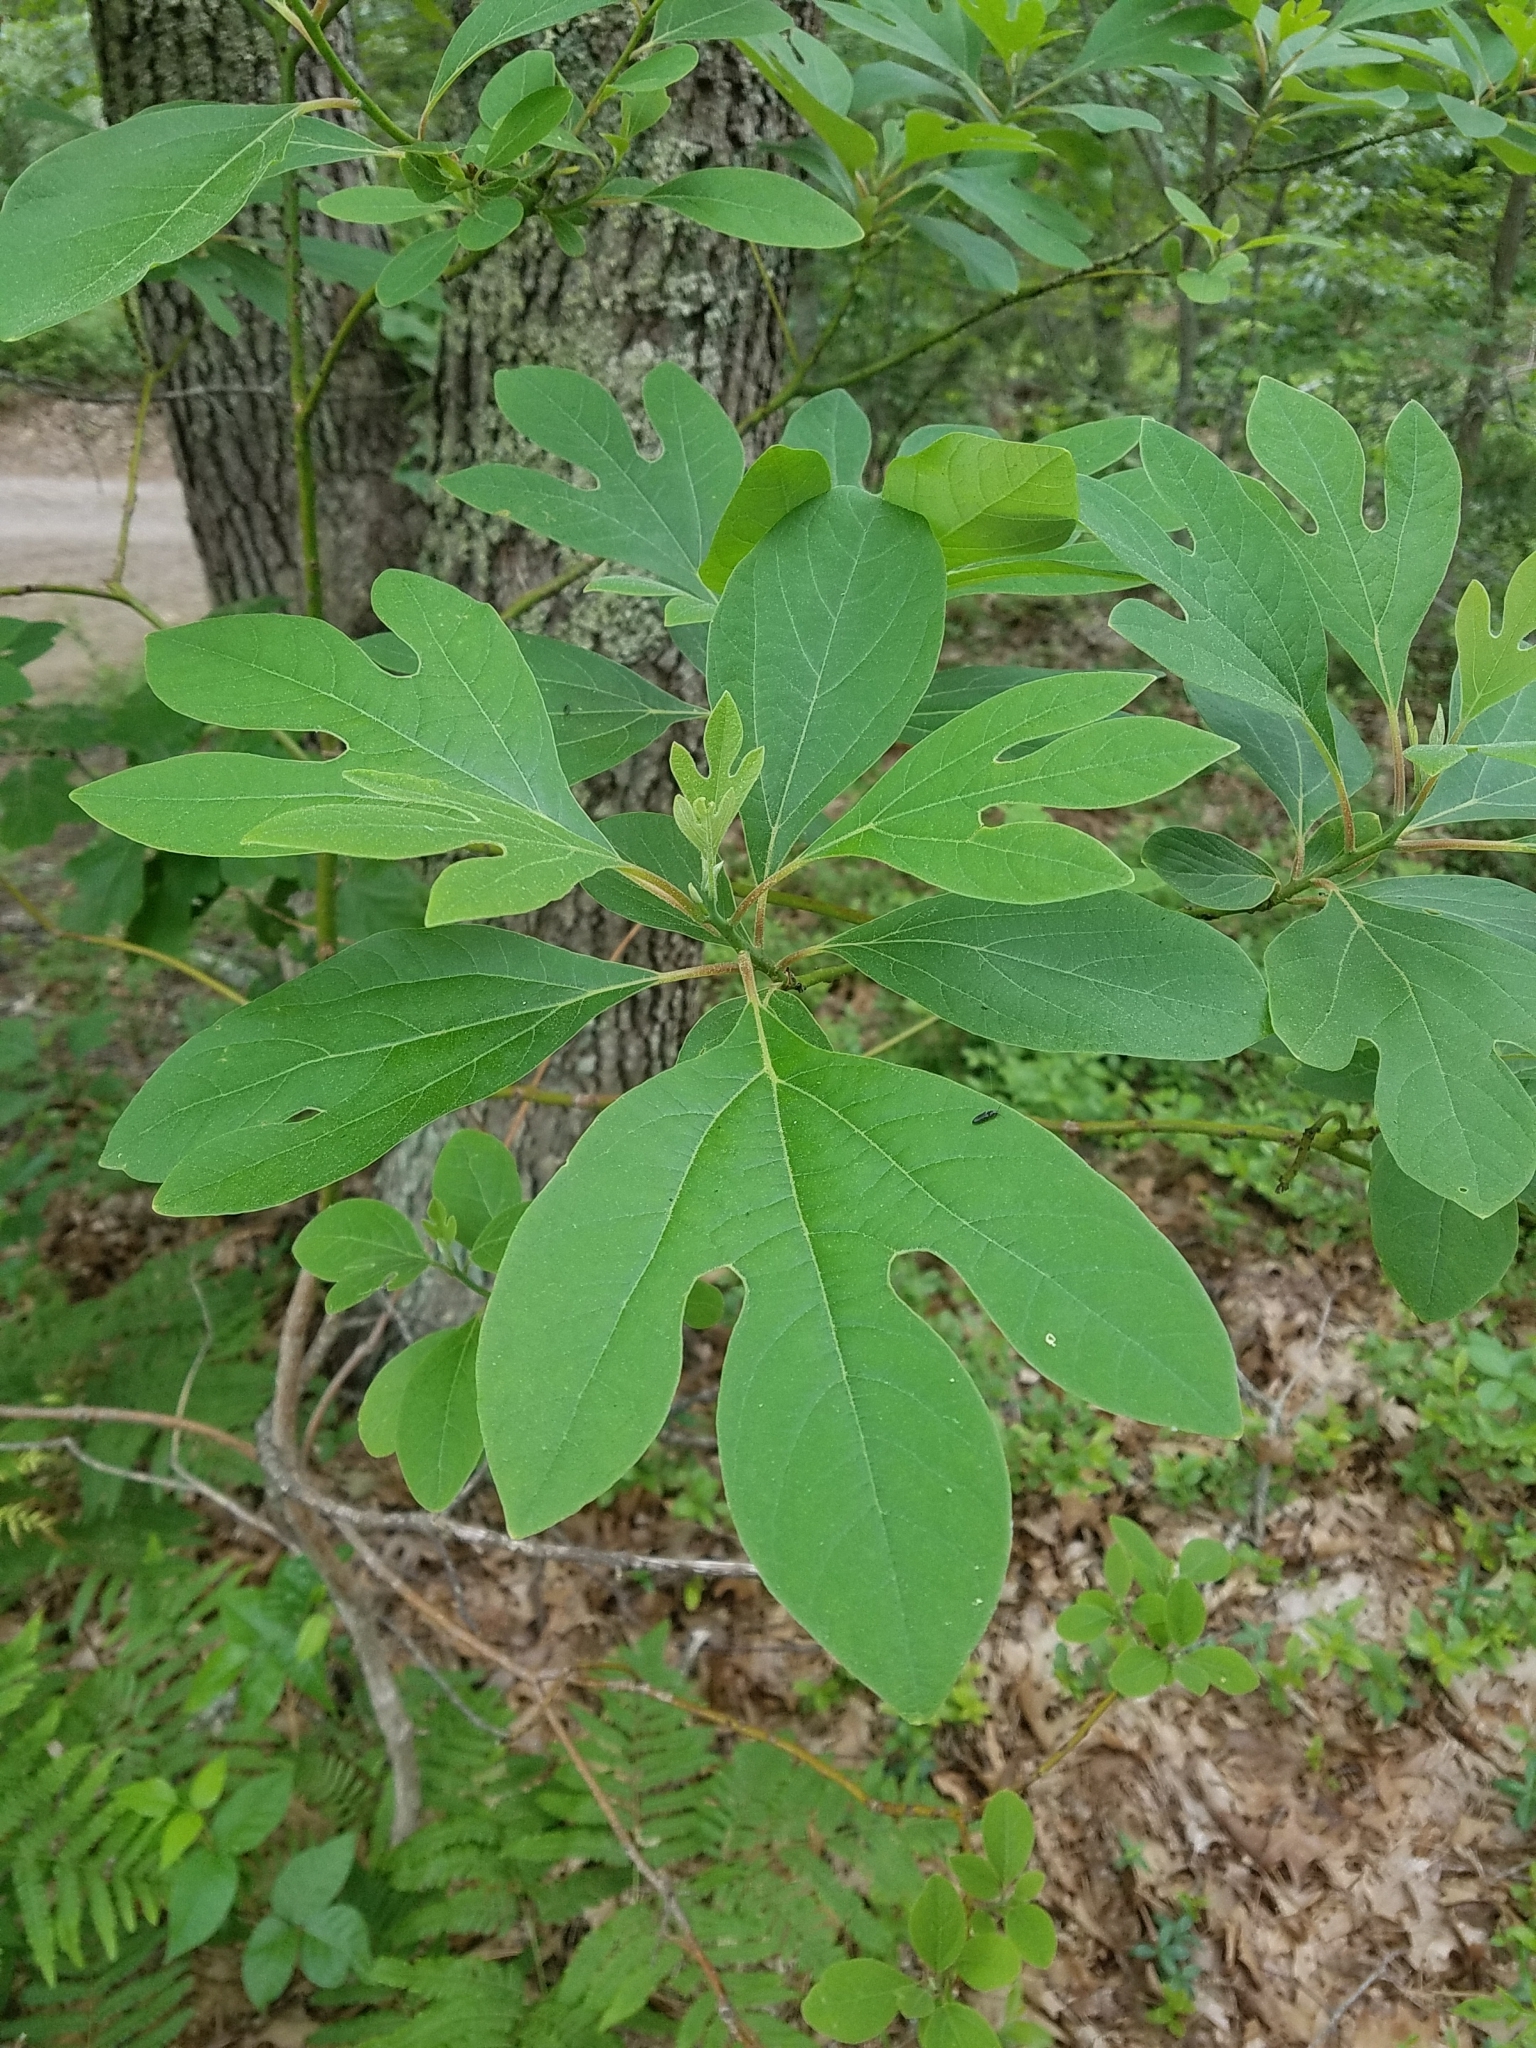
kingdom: Plantae
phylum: Tracheophyta
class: Magnoliopsida
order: Laurales
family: Lauraceae
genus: Sassafras
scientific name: Sassafras albidum
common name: Sassafras
